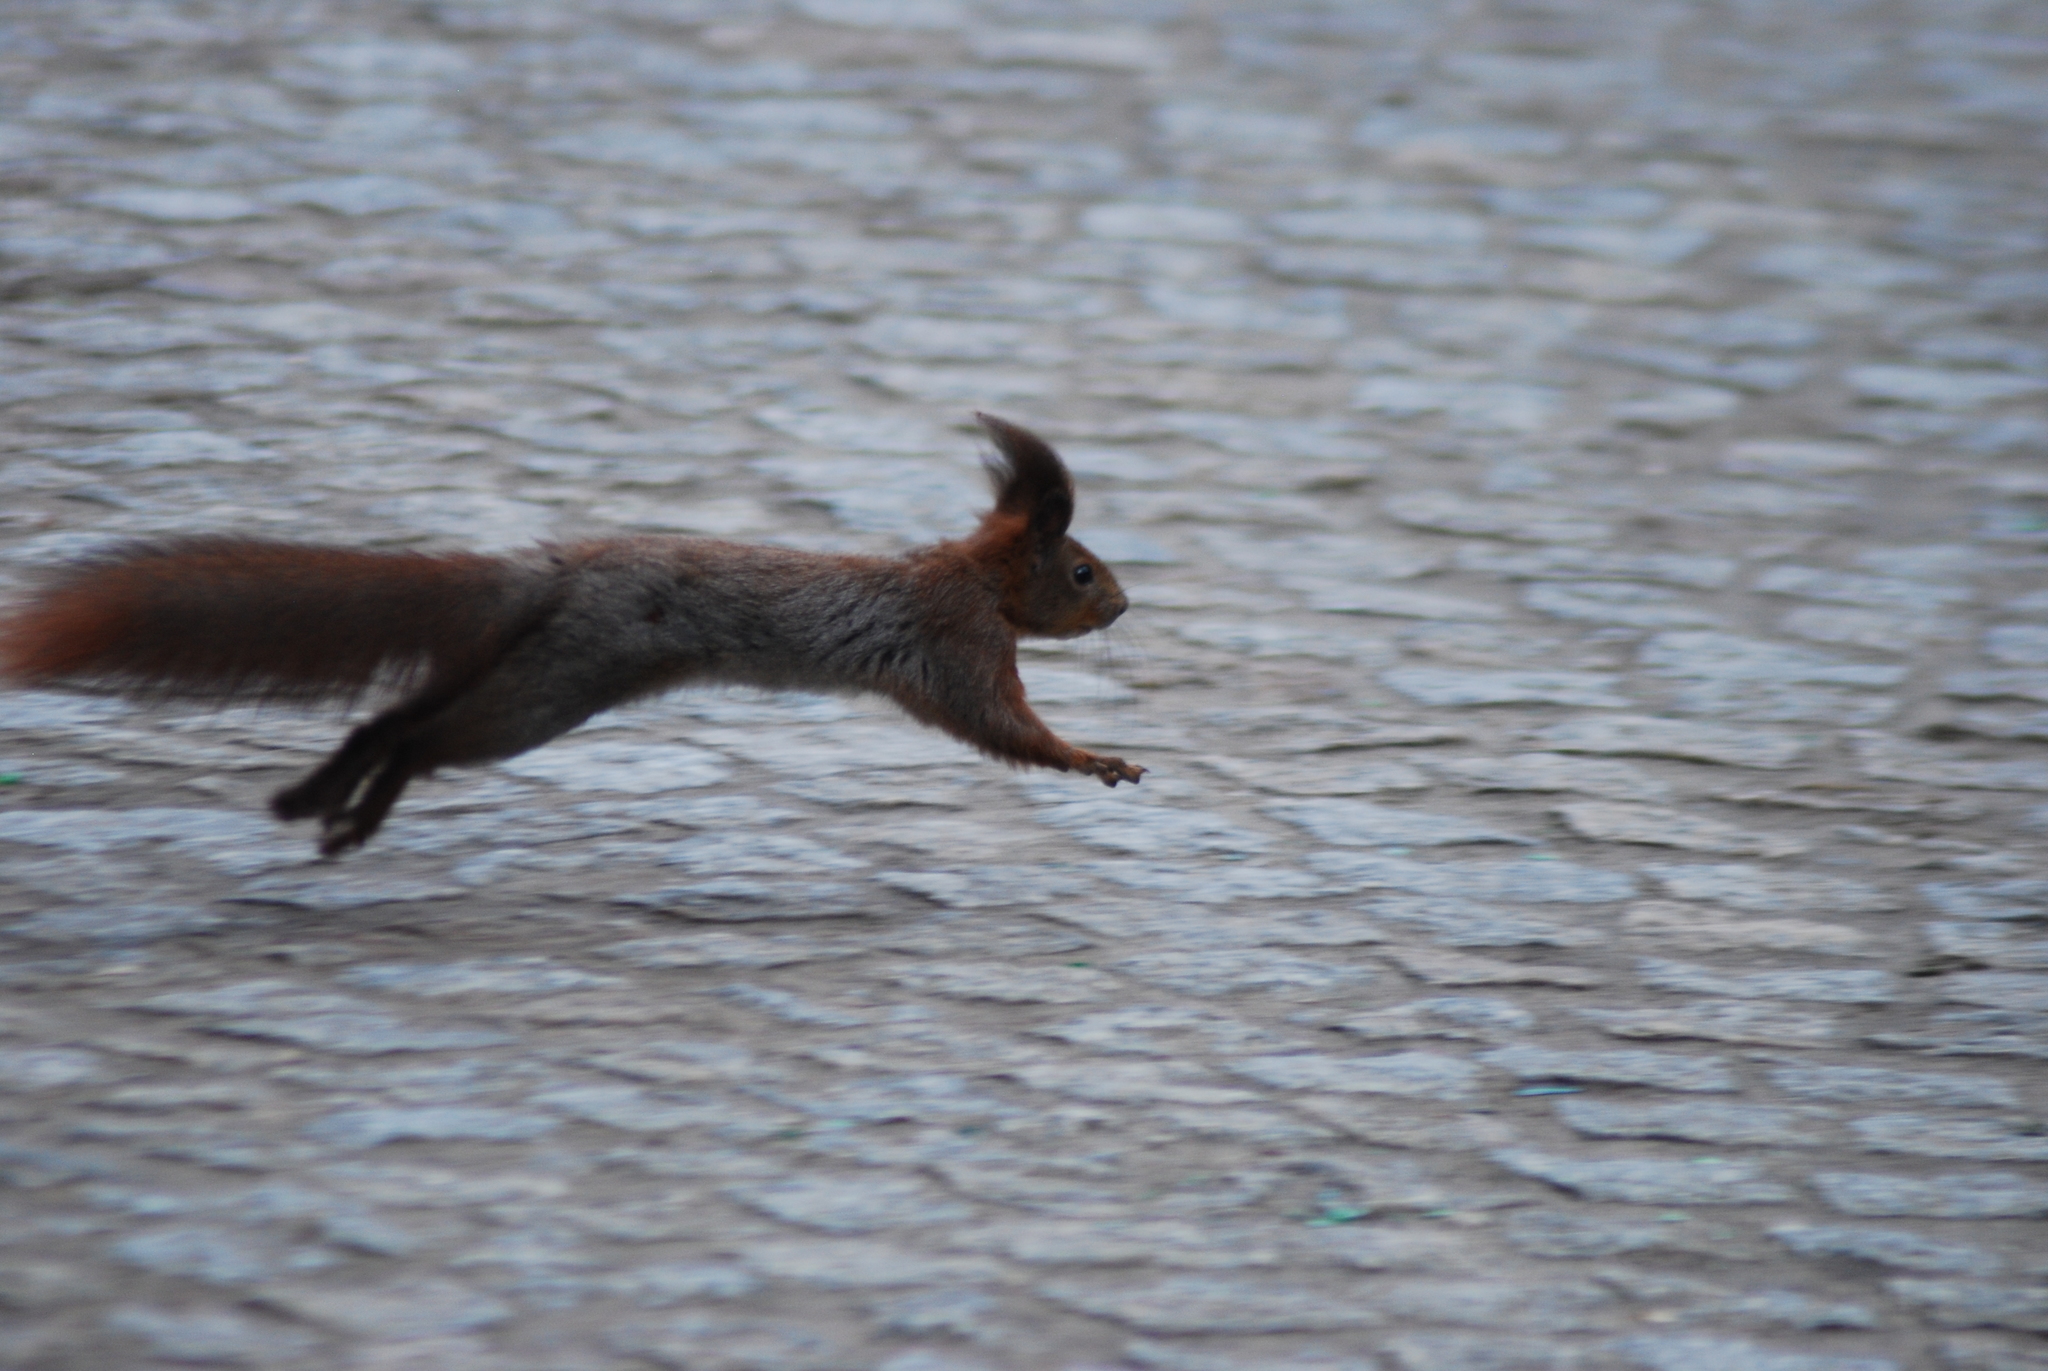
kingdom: Animalia
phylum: Chordata
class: Mammalia
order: Rodentia
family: Sciuridae
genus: Sciurus
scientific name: Sciurus vulgaris
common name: Eurasian red squirrel
